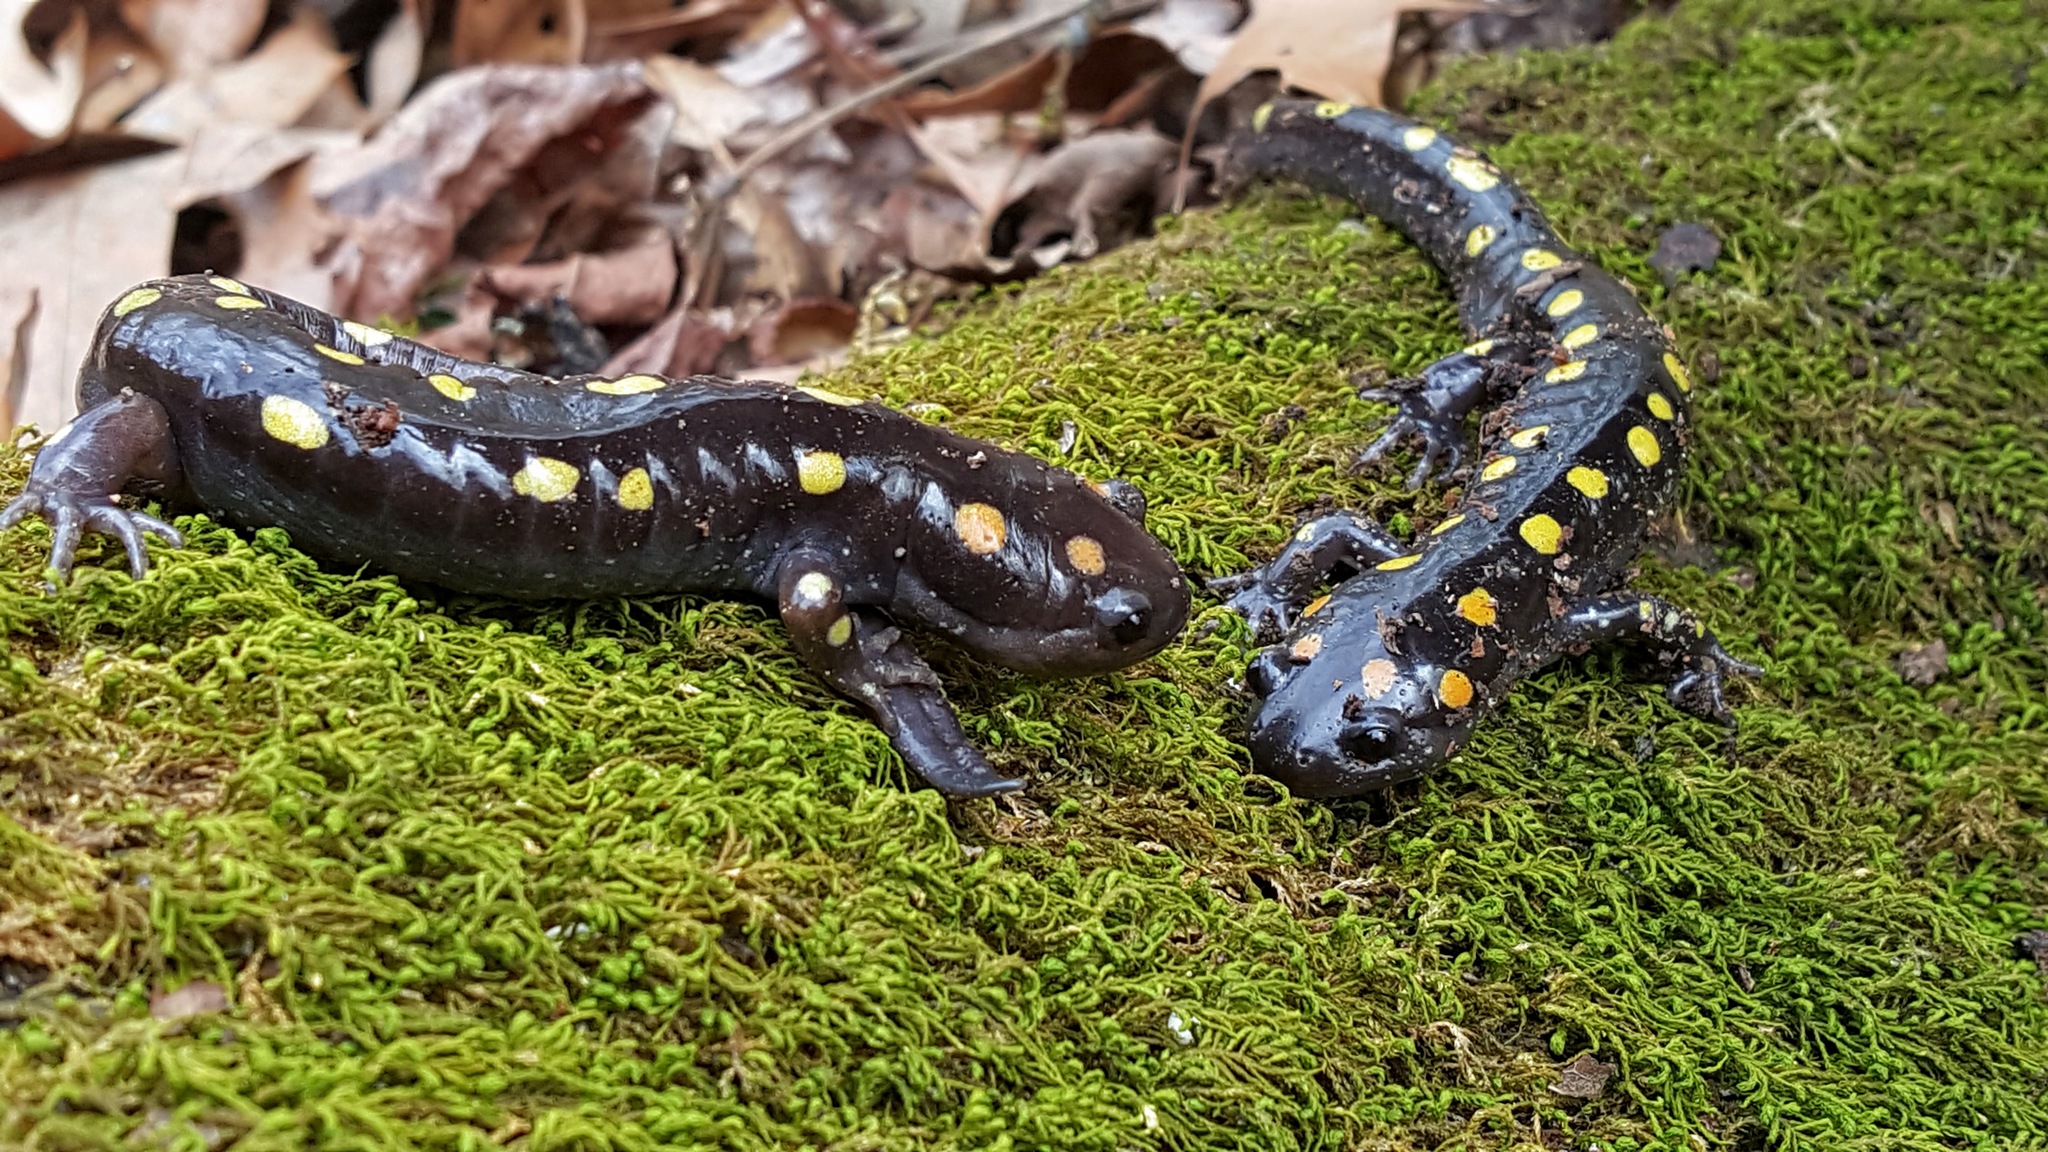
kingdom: Animalia
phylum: Chordata
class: Amphibia
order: Caudata
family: Ambystomatidae
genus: Ambystoma
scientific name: Ambystoma maculatum
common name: Spotted salamander
